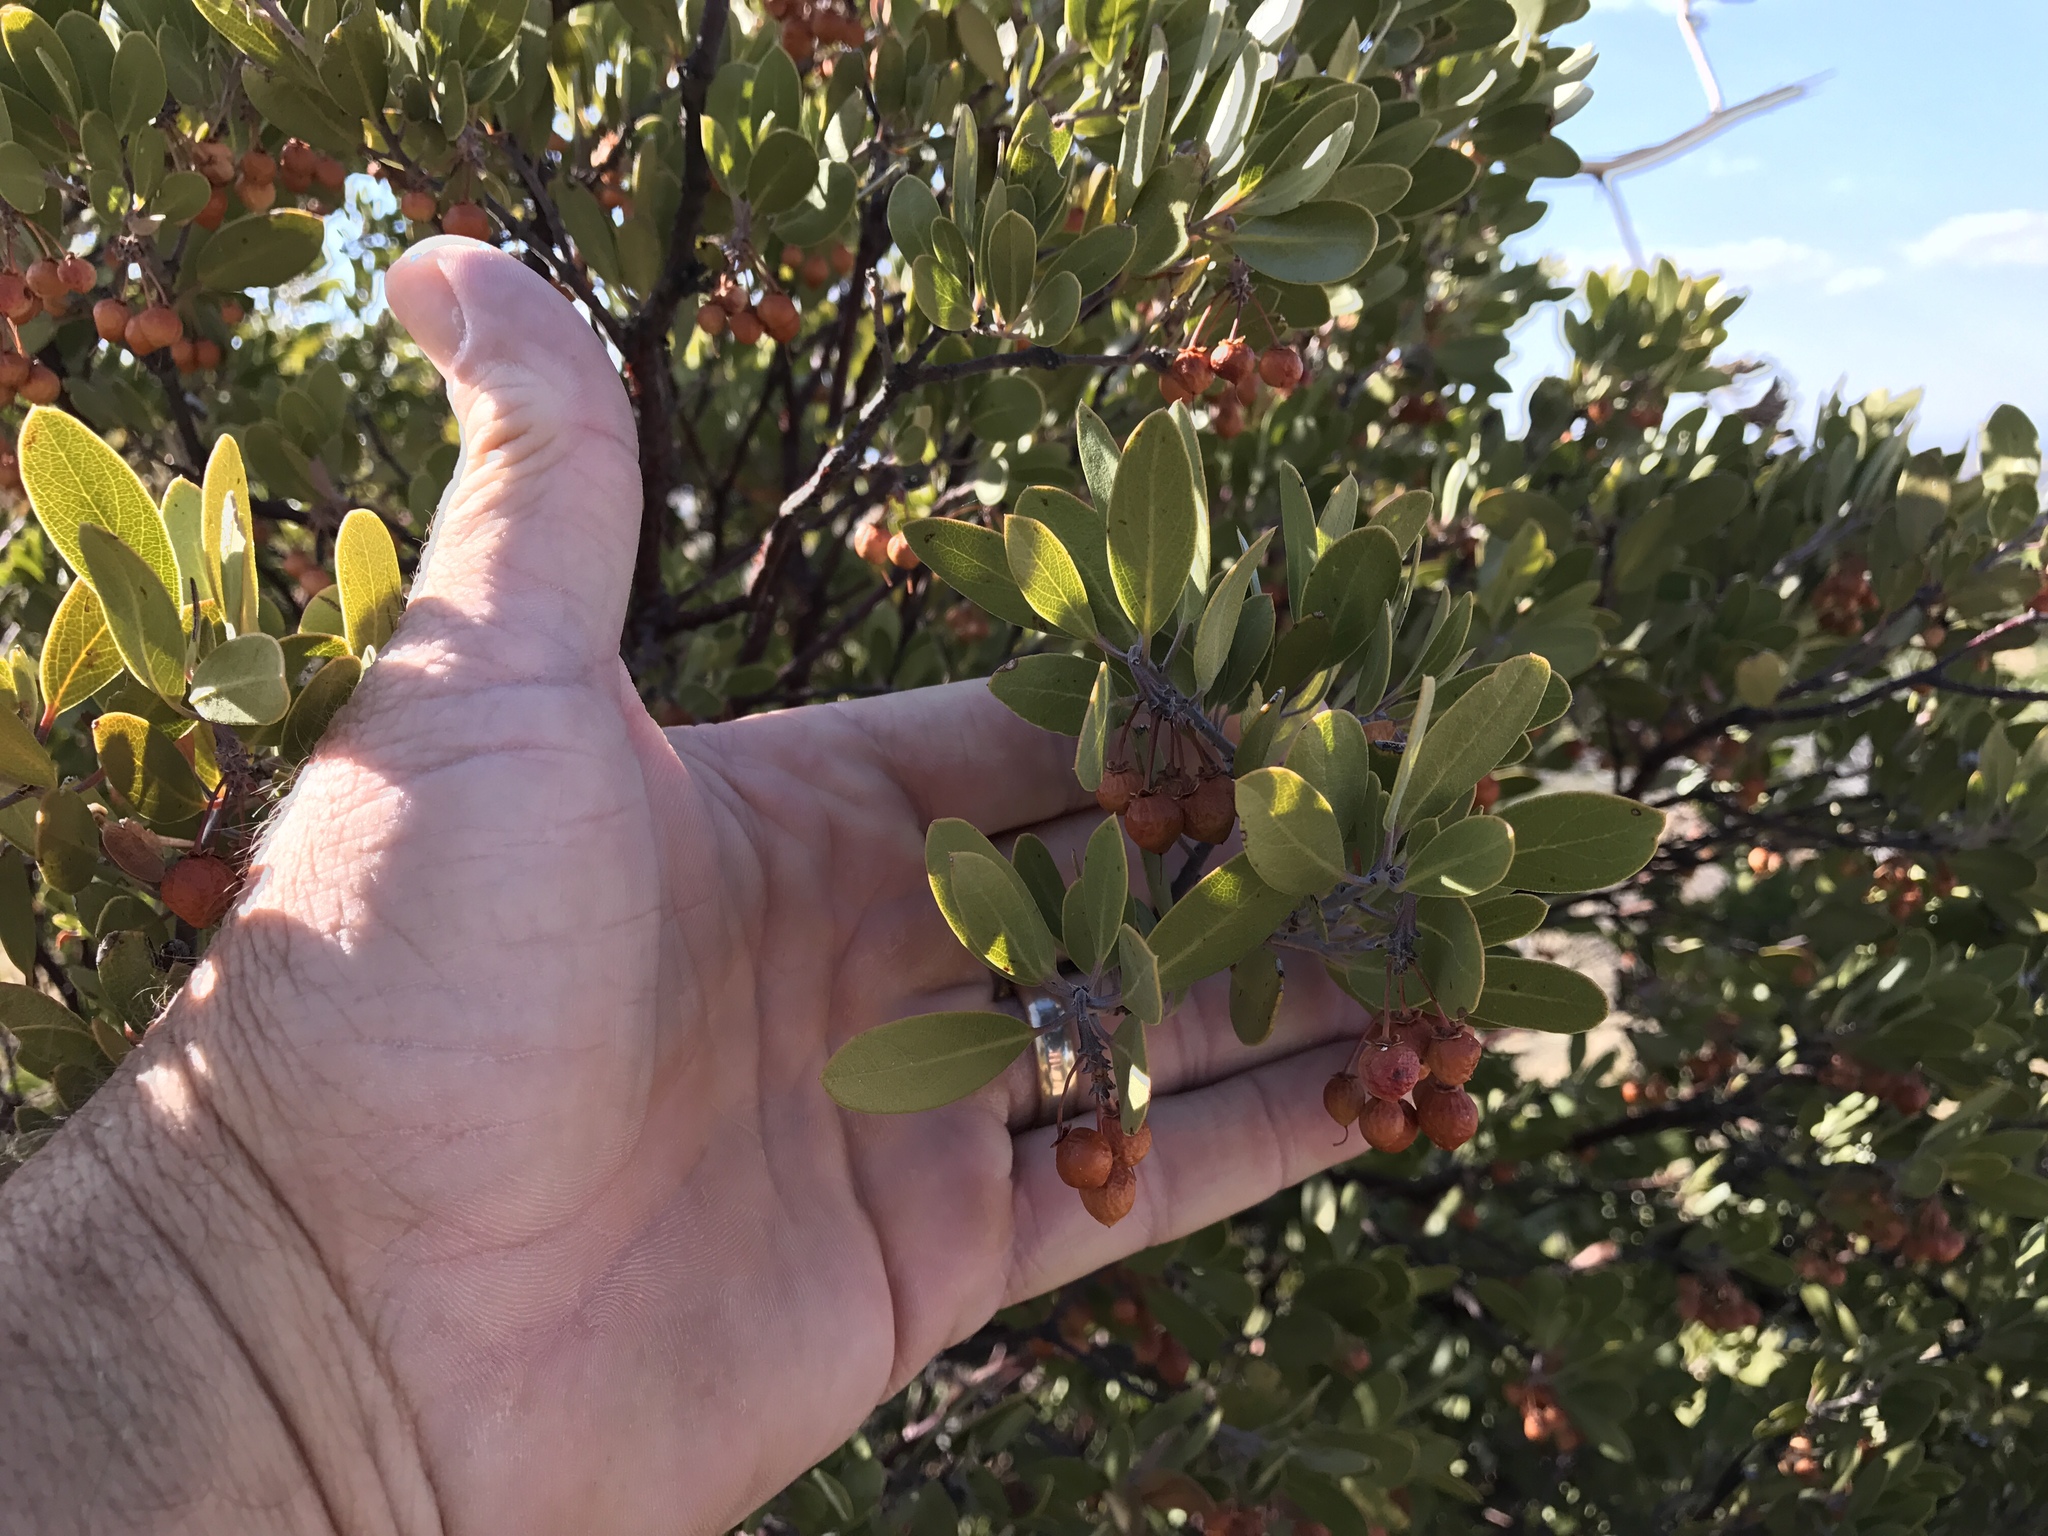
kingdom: Plantae
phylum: Tracheophyta
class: Magnoliopsida
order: Ericales
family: Ericaceae
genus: Arctostaphylos
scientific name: Arctostaphylos pungens
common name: Mexican manzanita
